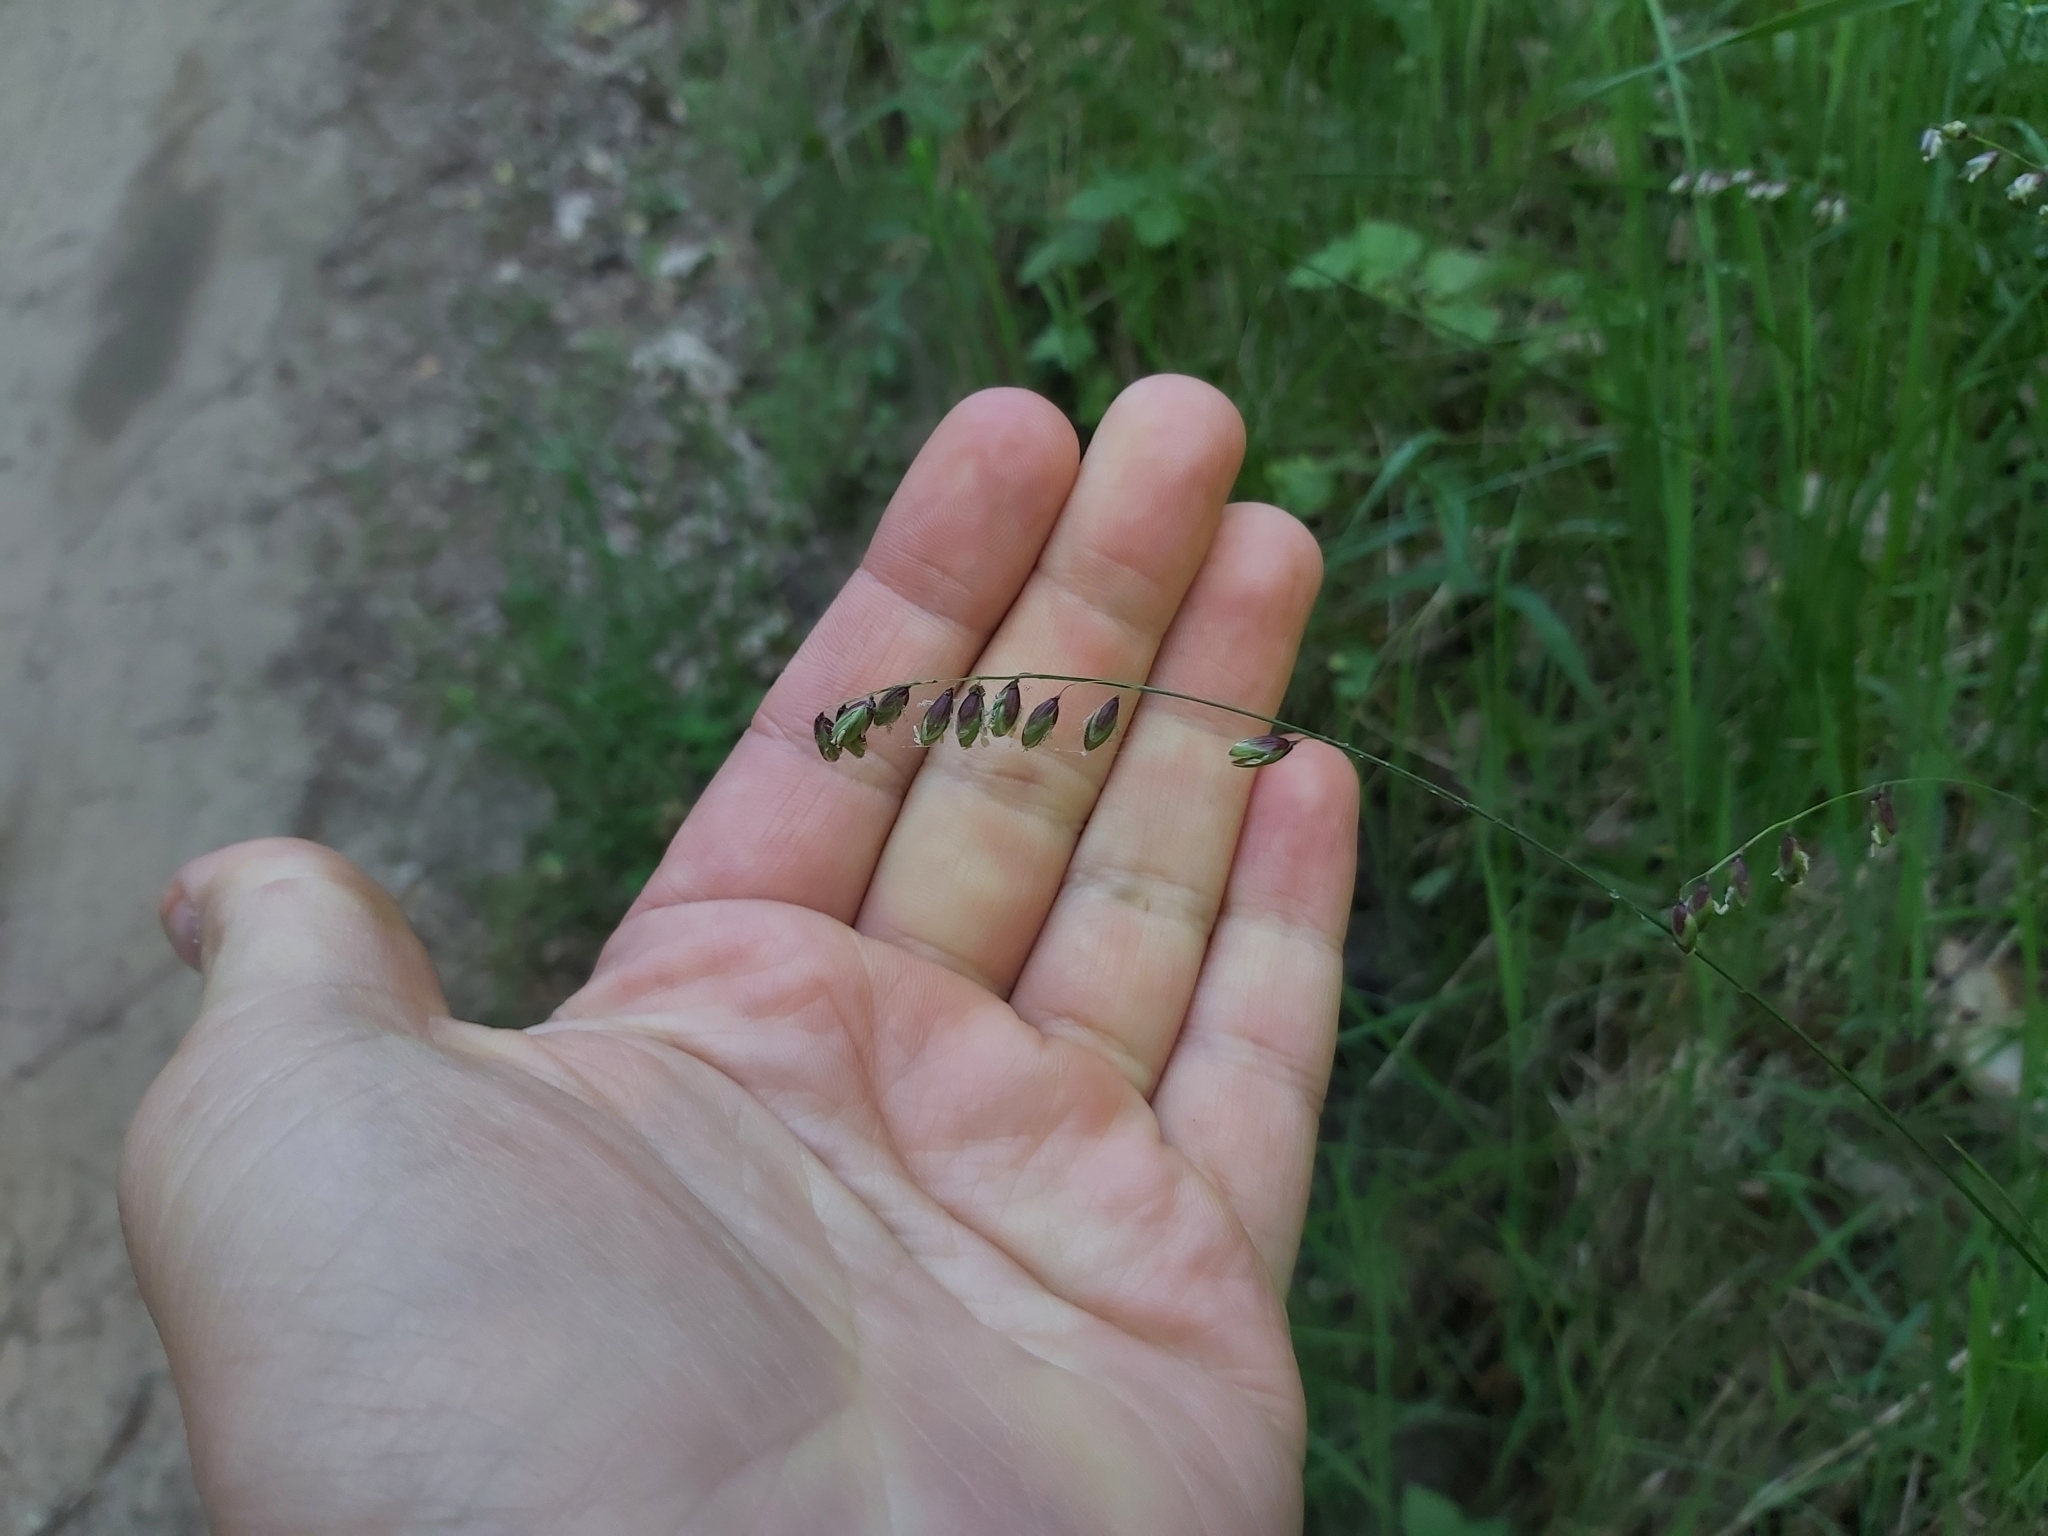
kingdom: Plantae
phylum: Tracheophyta
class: Liliopsida
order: Poales
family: Poaceae
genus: Melica
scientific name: Melica nutans
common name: Mountain melick
